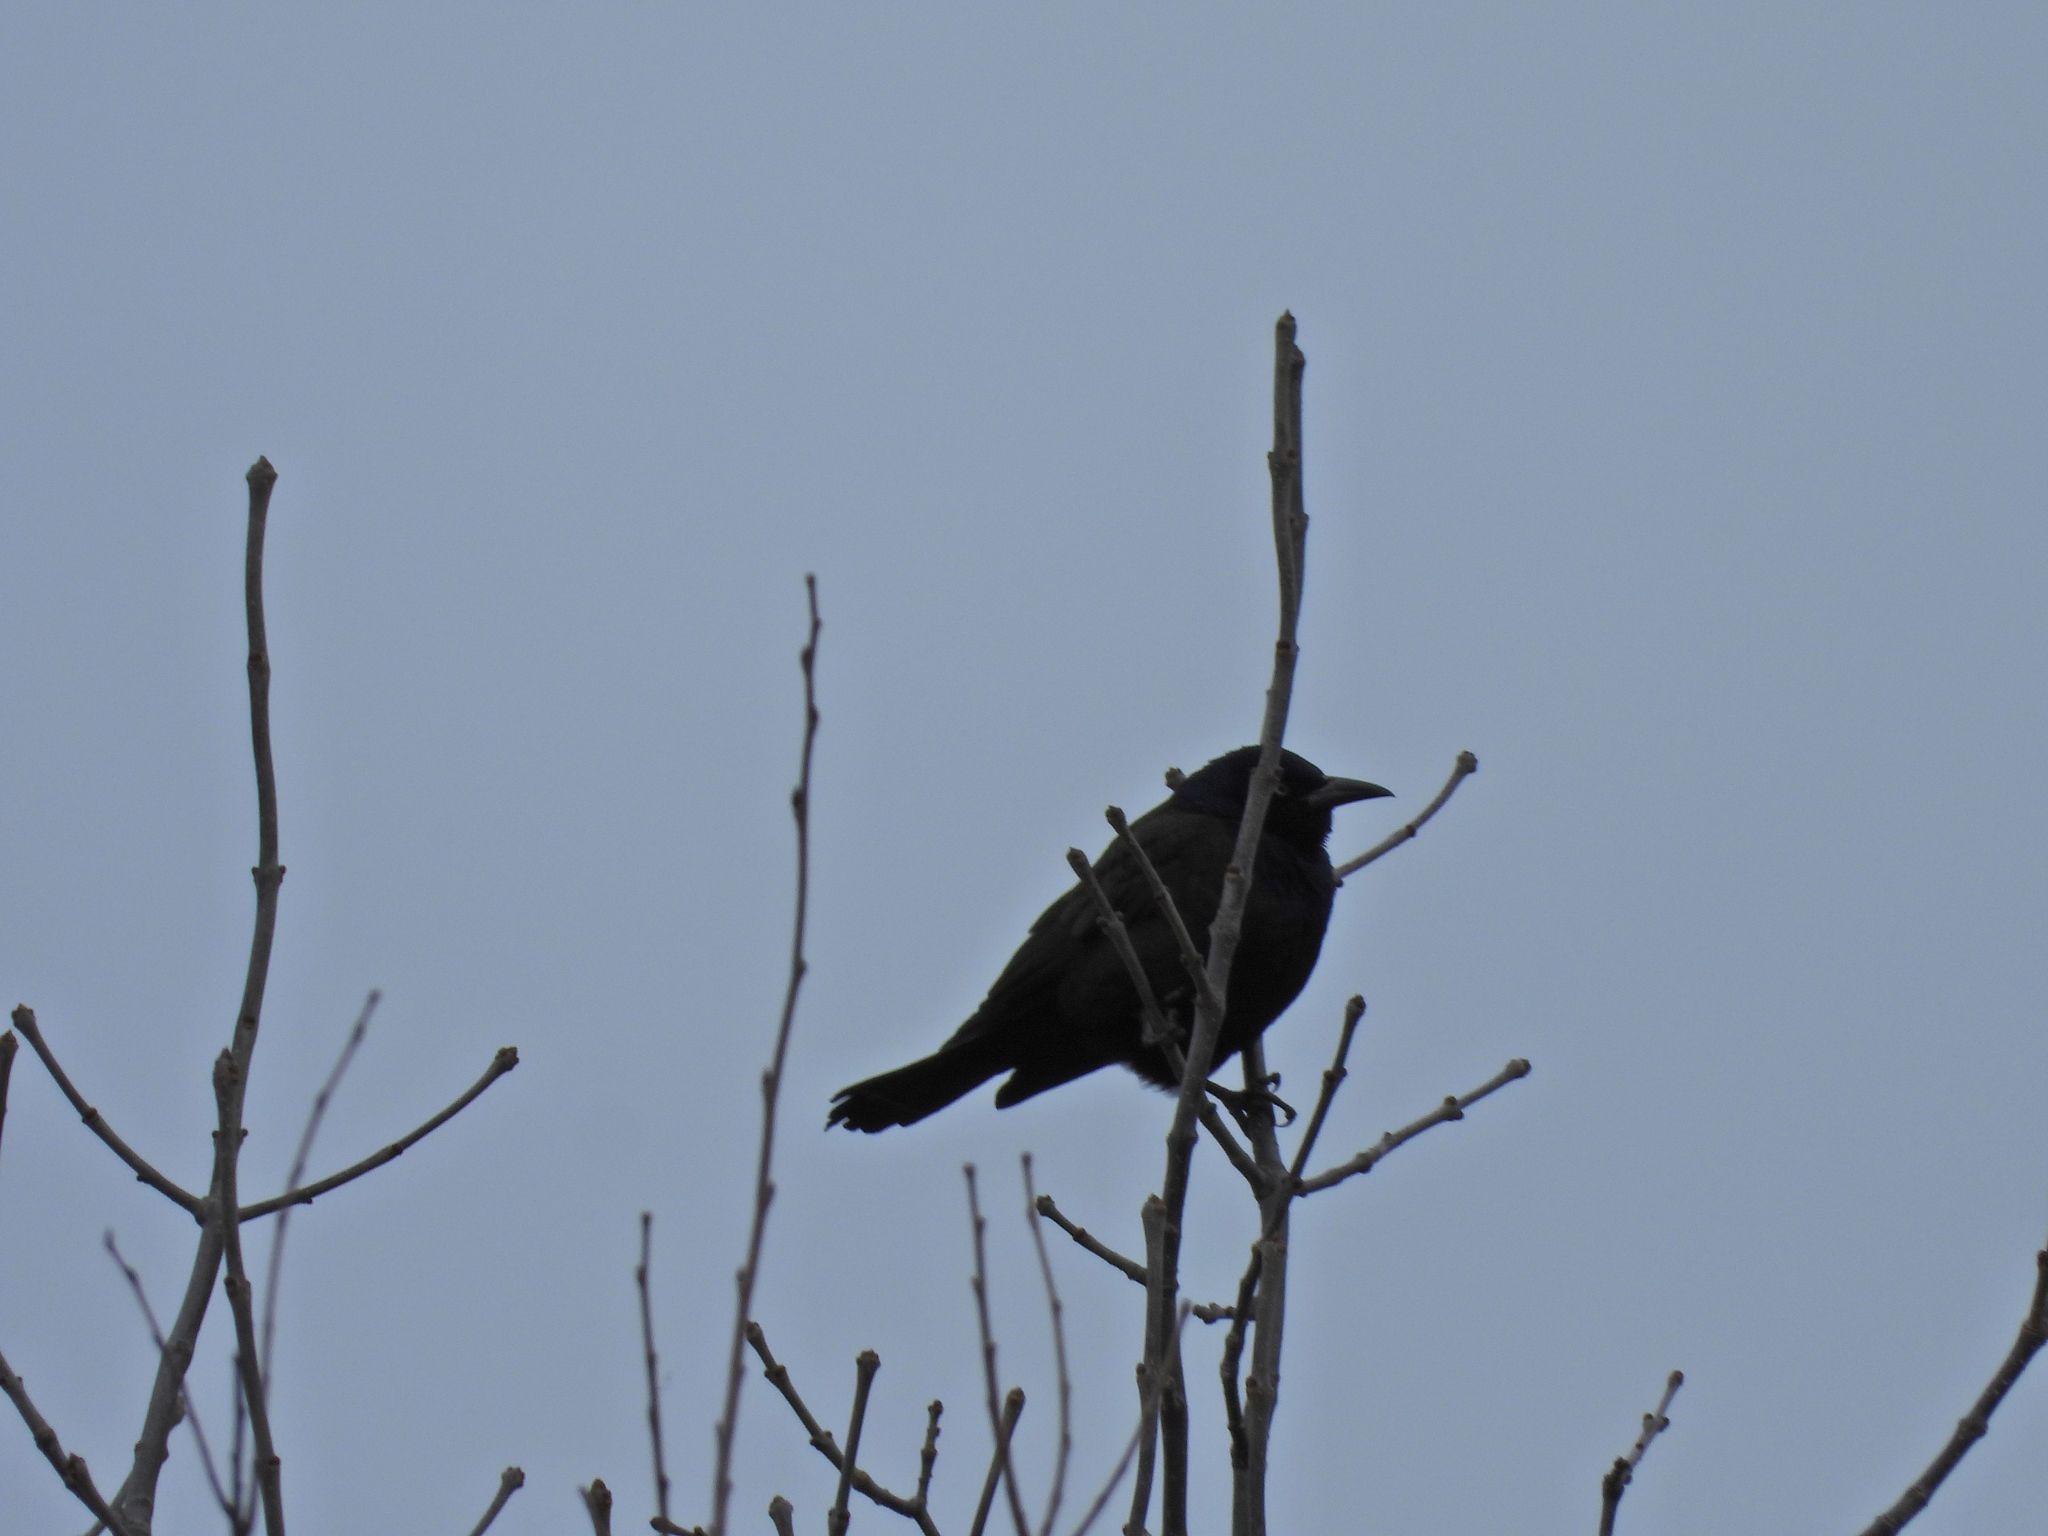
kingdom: Animalia
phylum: Chordata
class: Aves
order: Passeriformes
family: Icteridae
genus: Quiscalus
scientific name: Quiscalus quiscula
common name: Common grackle
